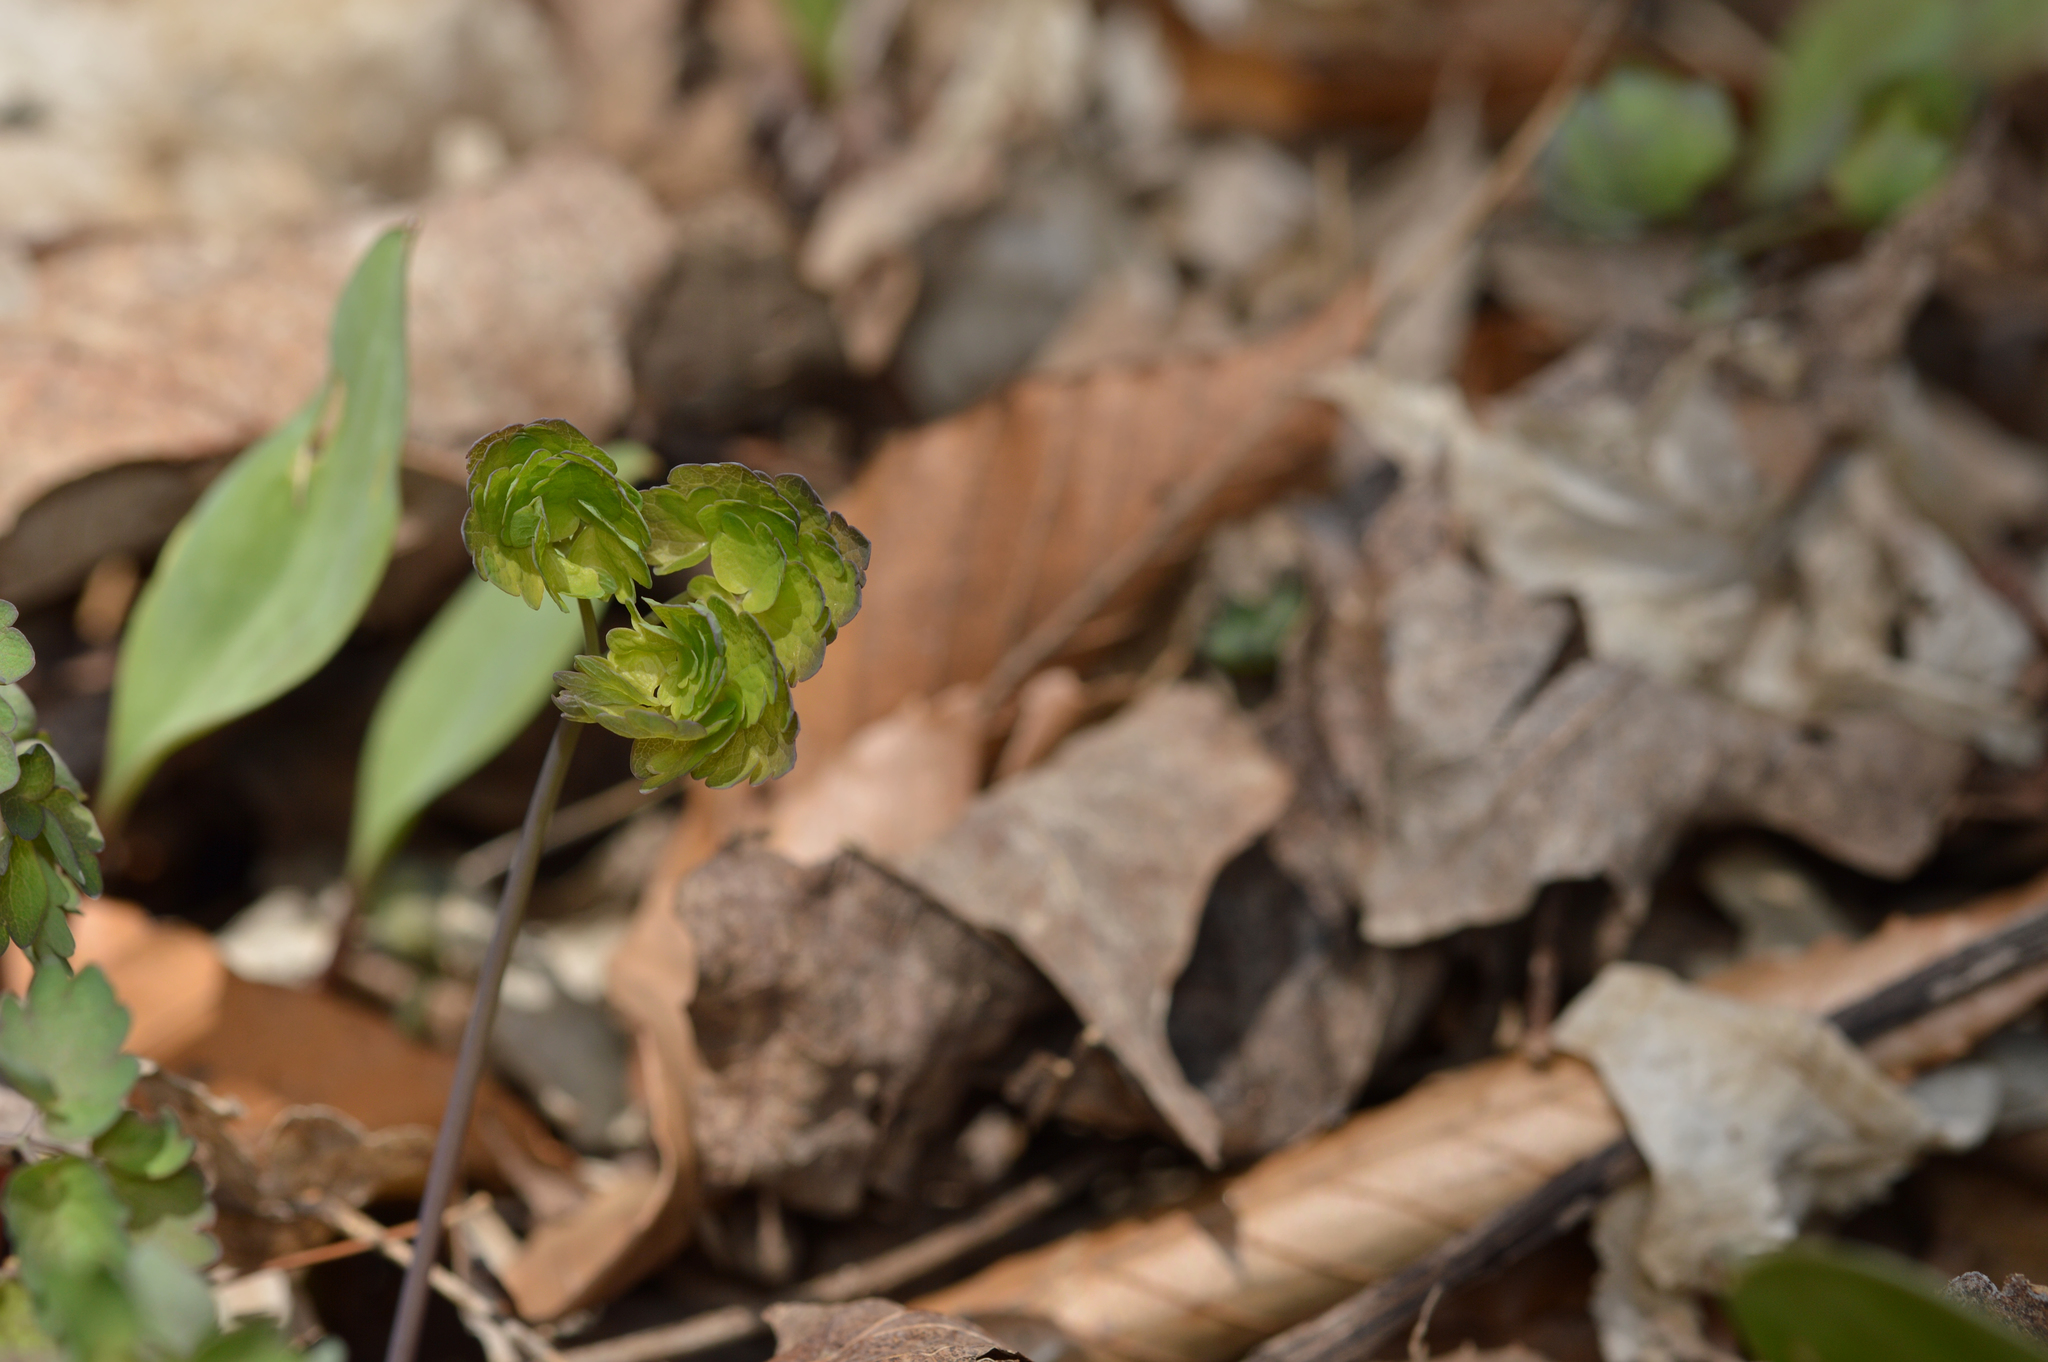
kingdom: Plantae
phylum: Tracheophyta
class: Magnoliopsida
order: Ranunculales
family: Ranunculaceae
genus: Thalictrum
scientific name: Thalictrum dioicum
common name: Early meadow-rue
